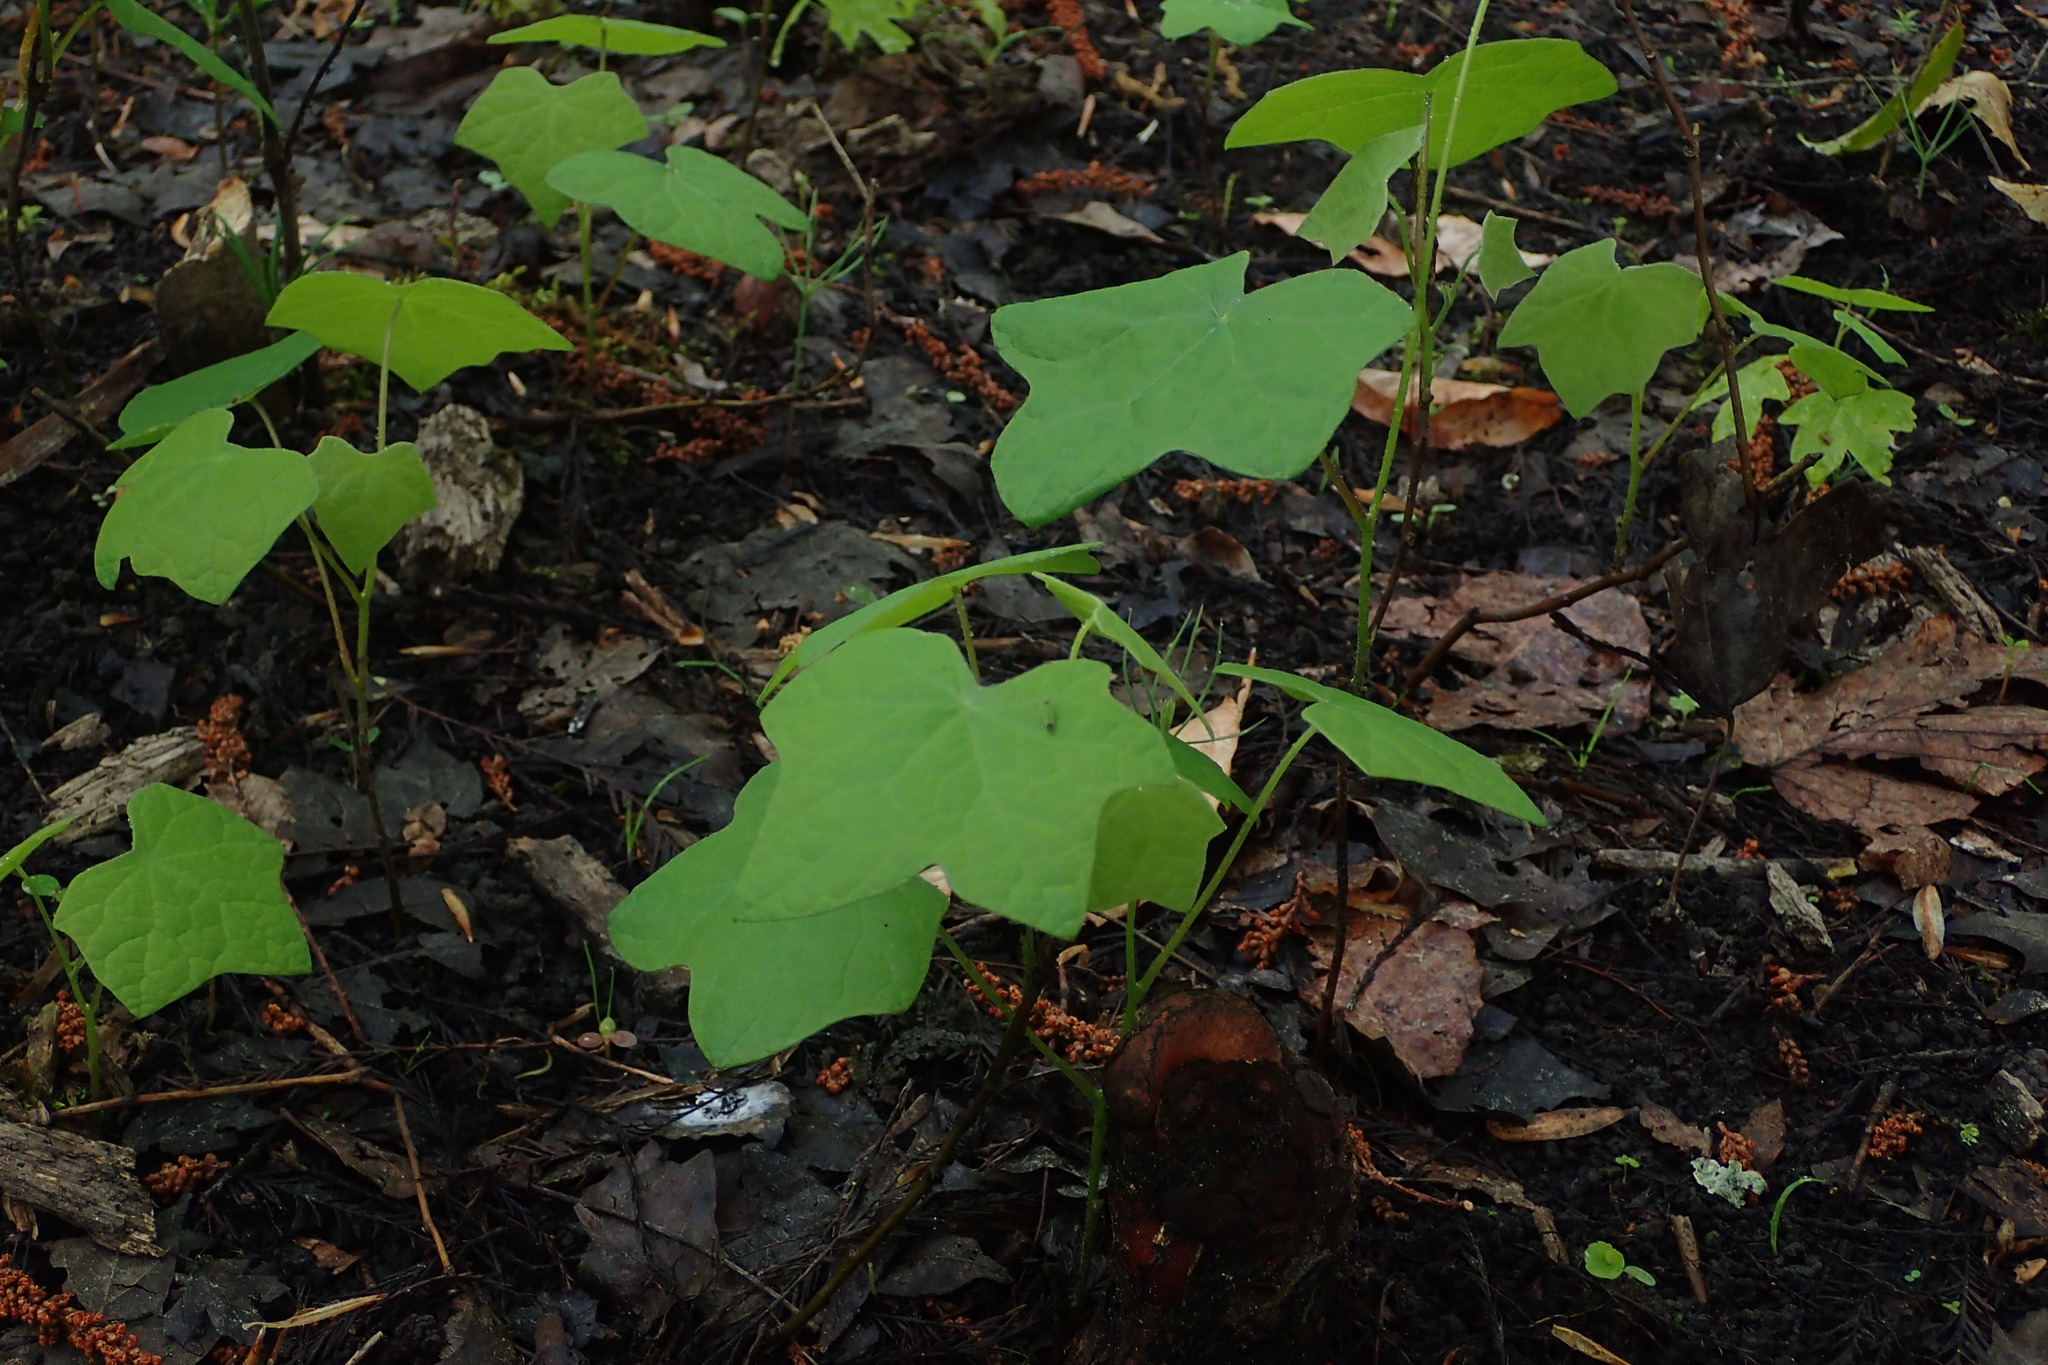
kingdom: Plantae
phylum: Tracheophyta
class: Magnoliopsida
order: Ranunculales
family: Menispermaceae
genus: Menispermum
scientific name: Menispermum canadense
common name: Moonseed
